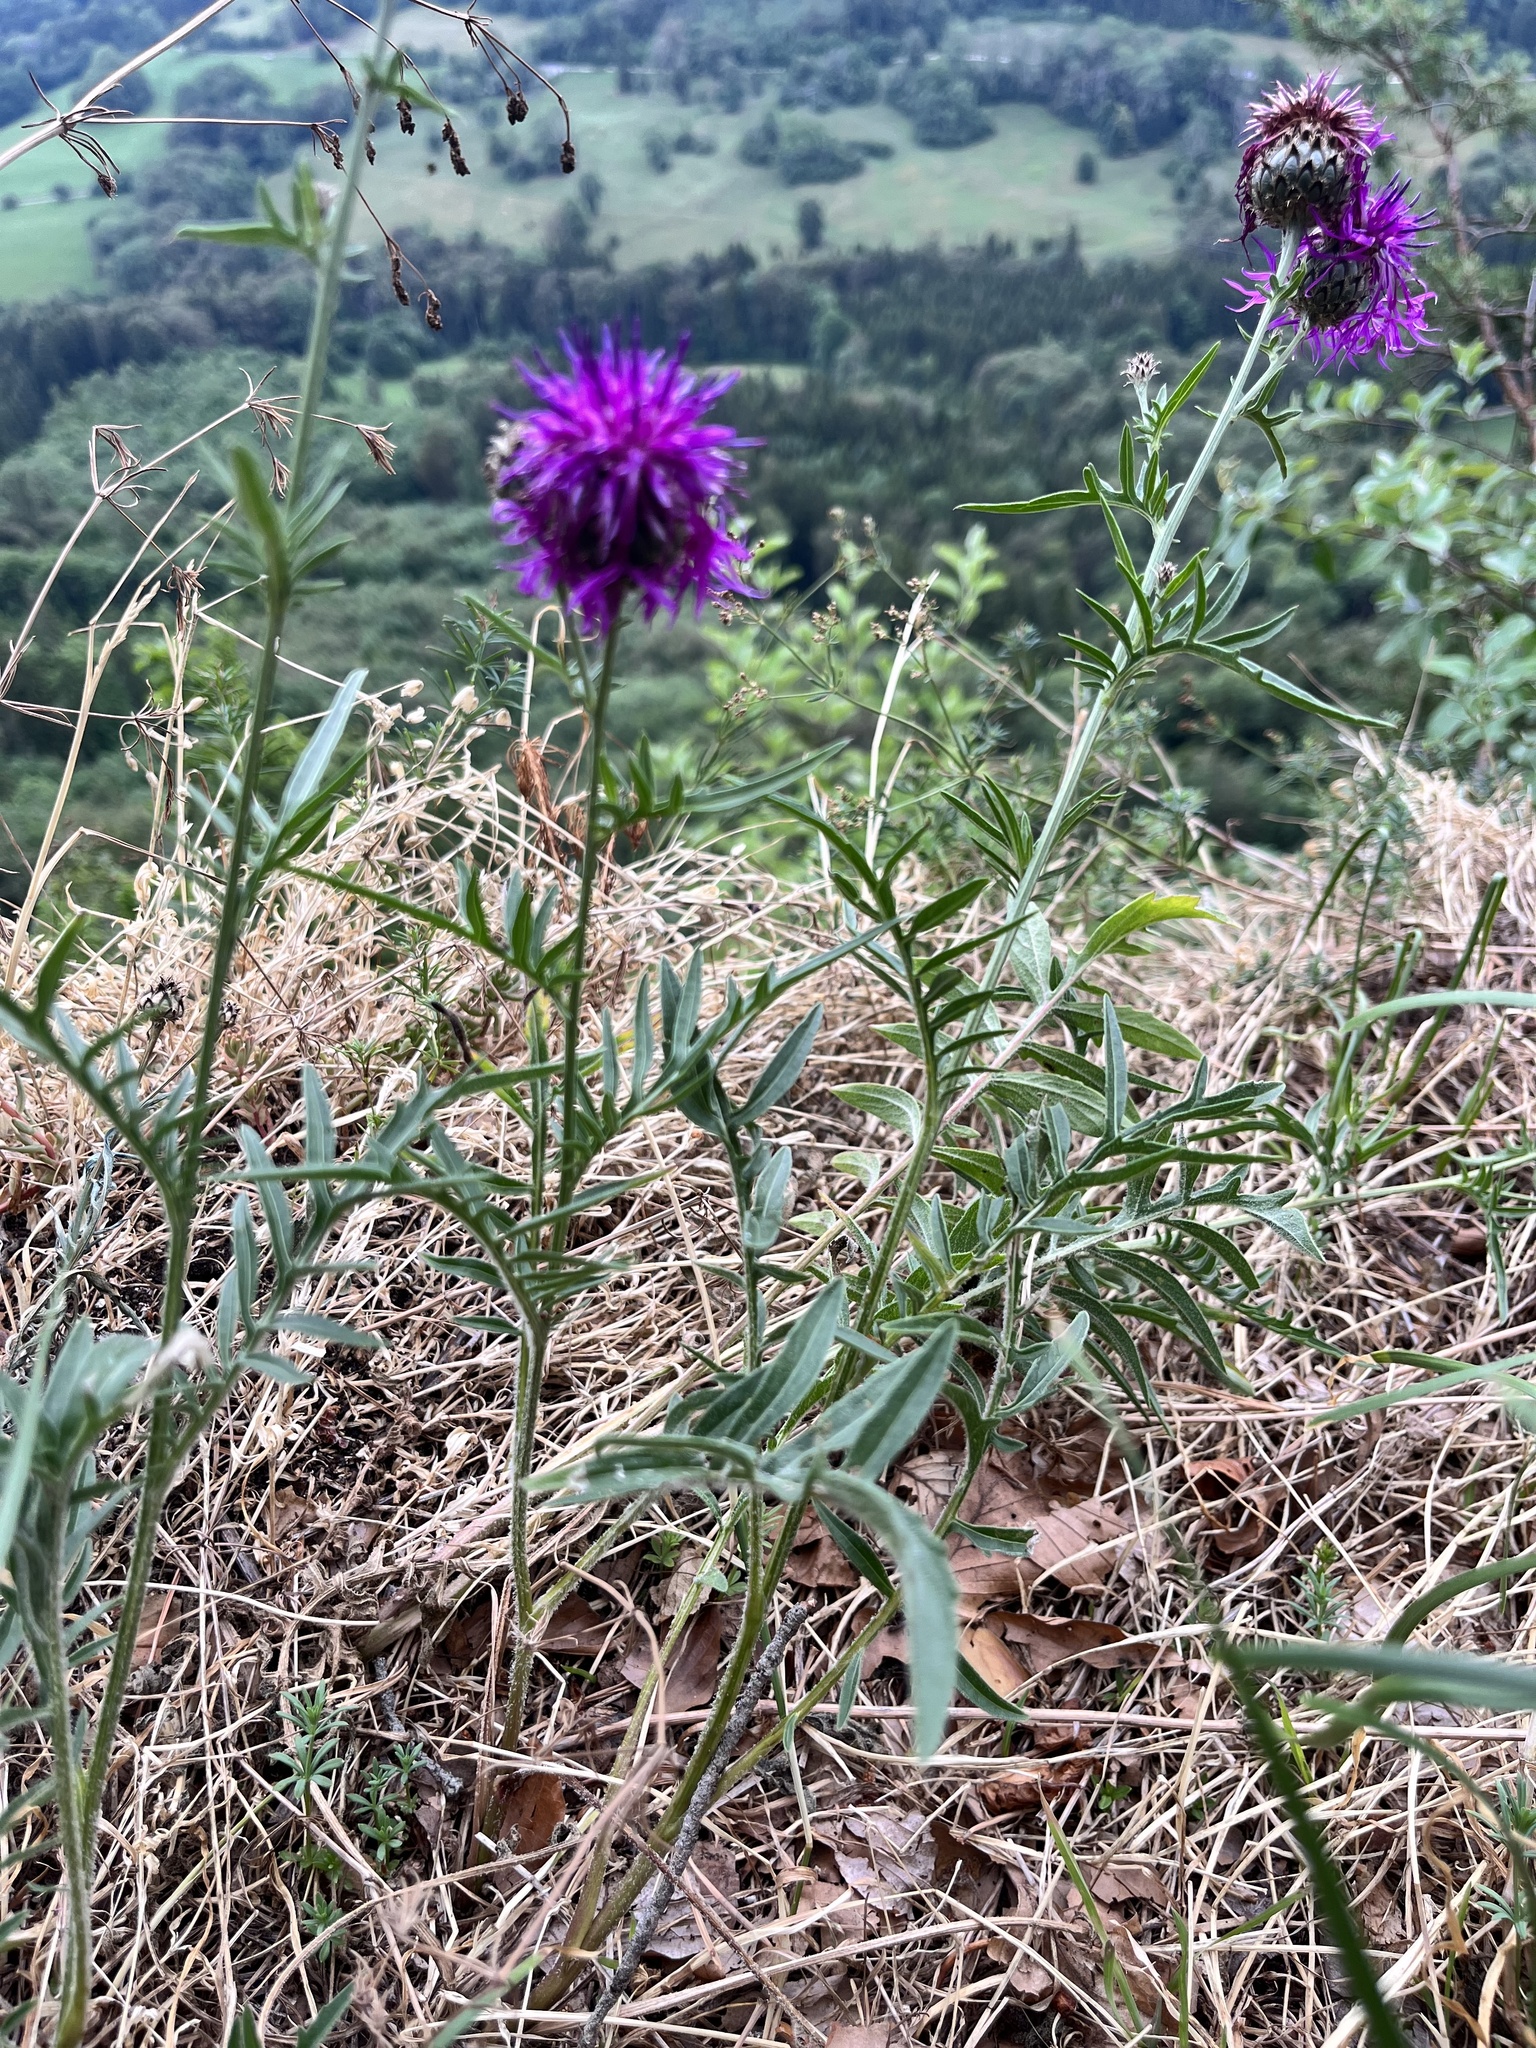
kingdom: Plantae
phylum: Tracheophyta
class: Magnoliopsida
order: Asterales
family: Asteraceae
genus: Centaurea
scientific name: Centaurea scabiosa
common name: Greater knapweed
